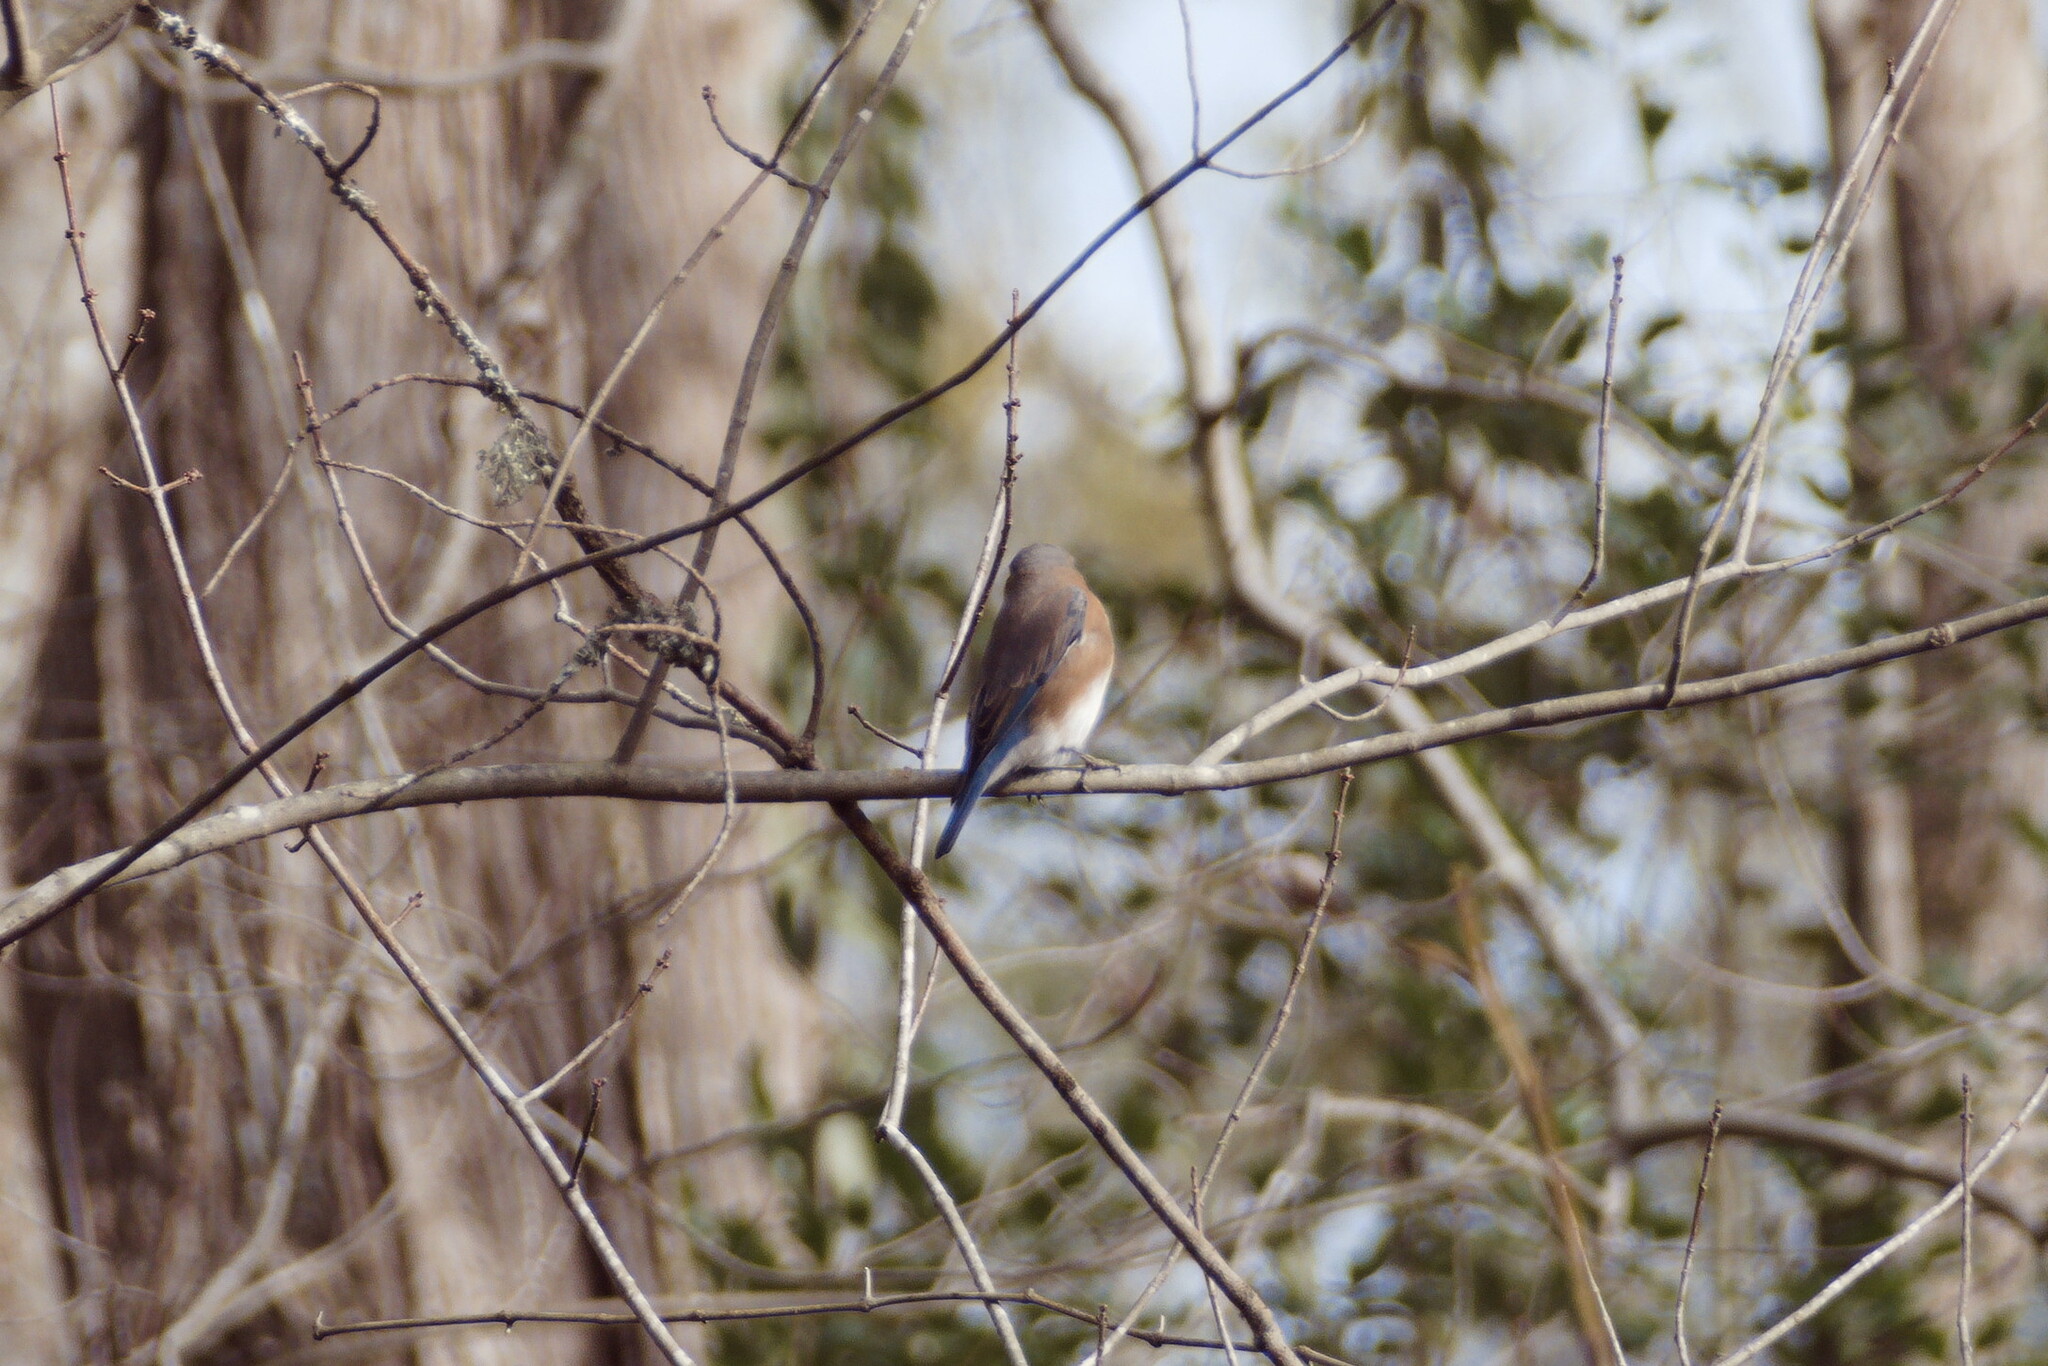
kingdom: Animalia
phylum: Chordata
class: Aves
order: Passeriformes
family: Turdidae
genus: Sialia
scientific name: Sialia sialis
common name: Eastern bluebird
